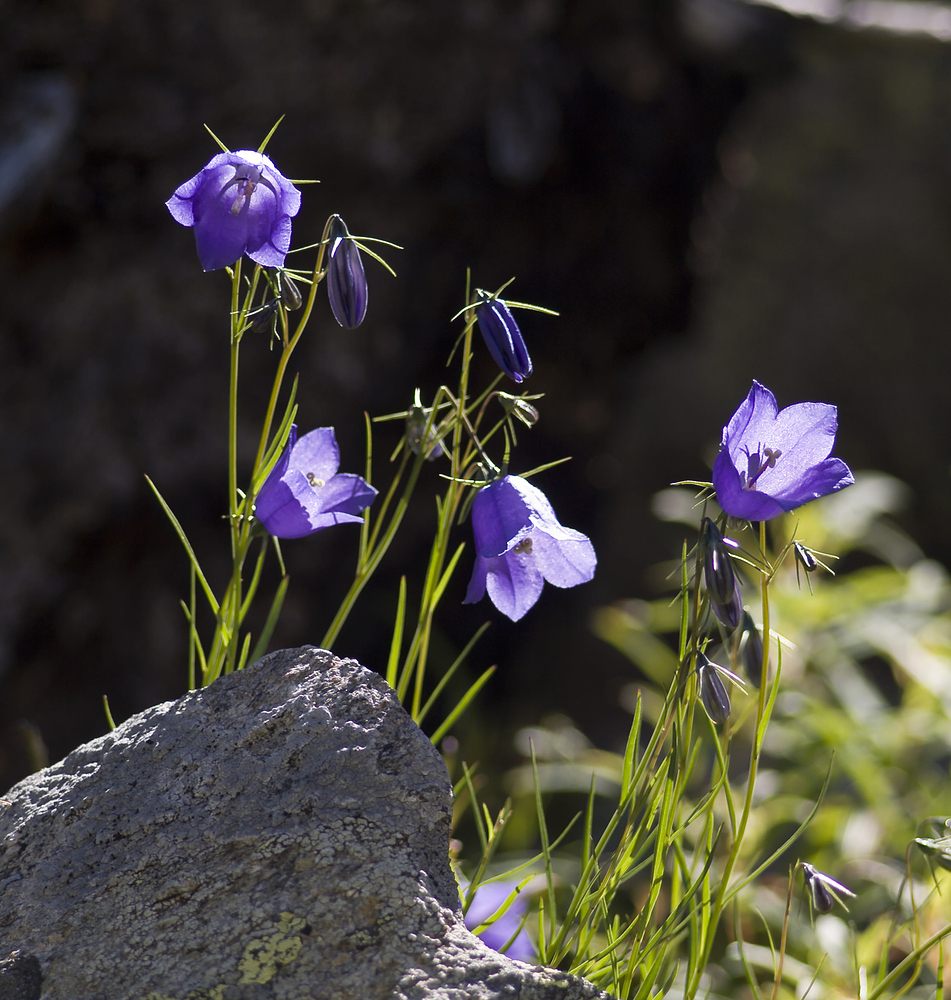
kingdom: Plantae
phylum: Tracheophyta
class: Magnoliopsida
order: Asterales
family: Campanulaceae
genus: Campanula
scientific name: Campanula scheuchzeri
